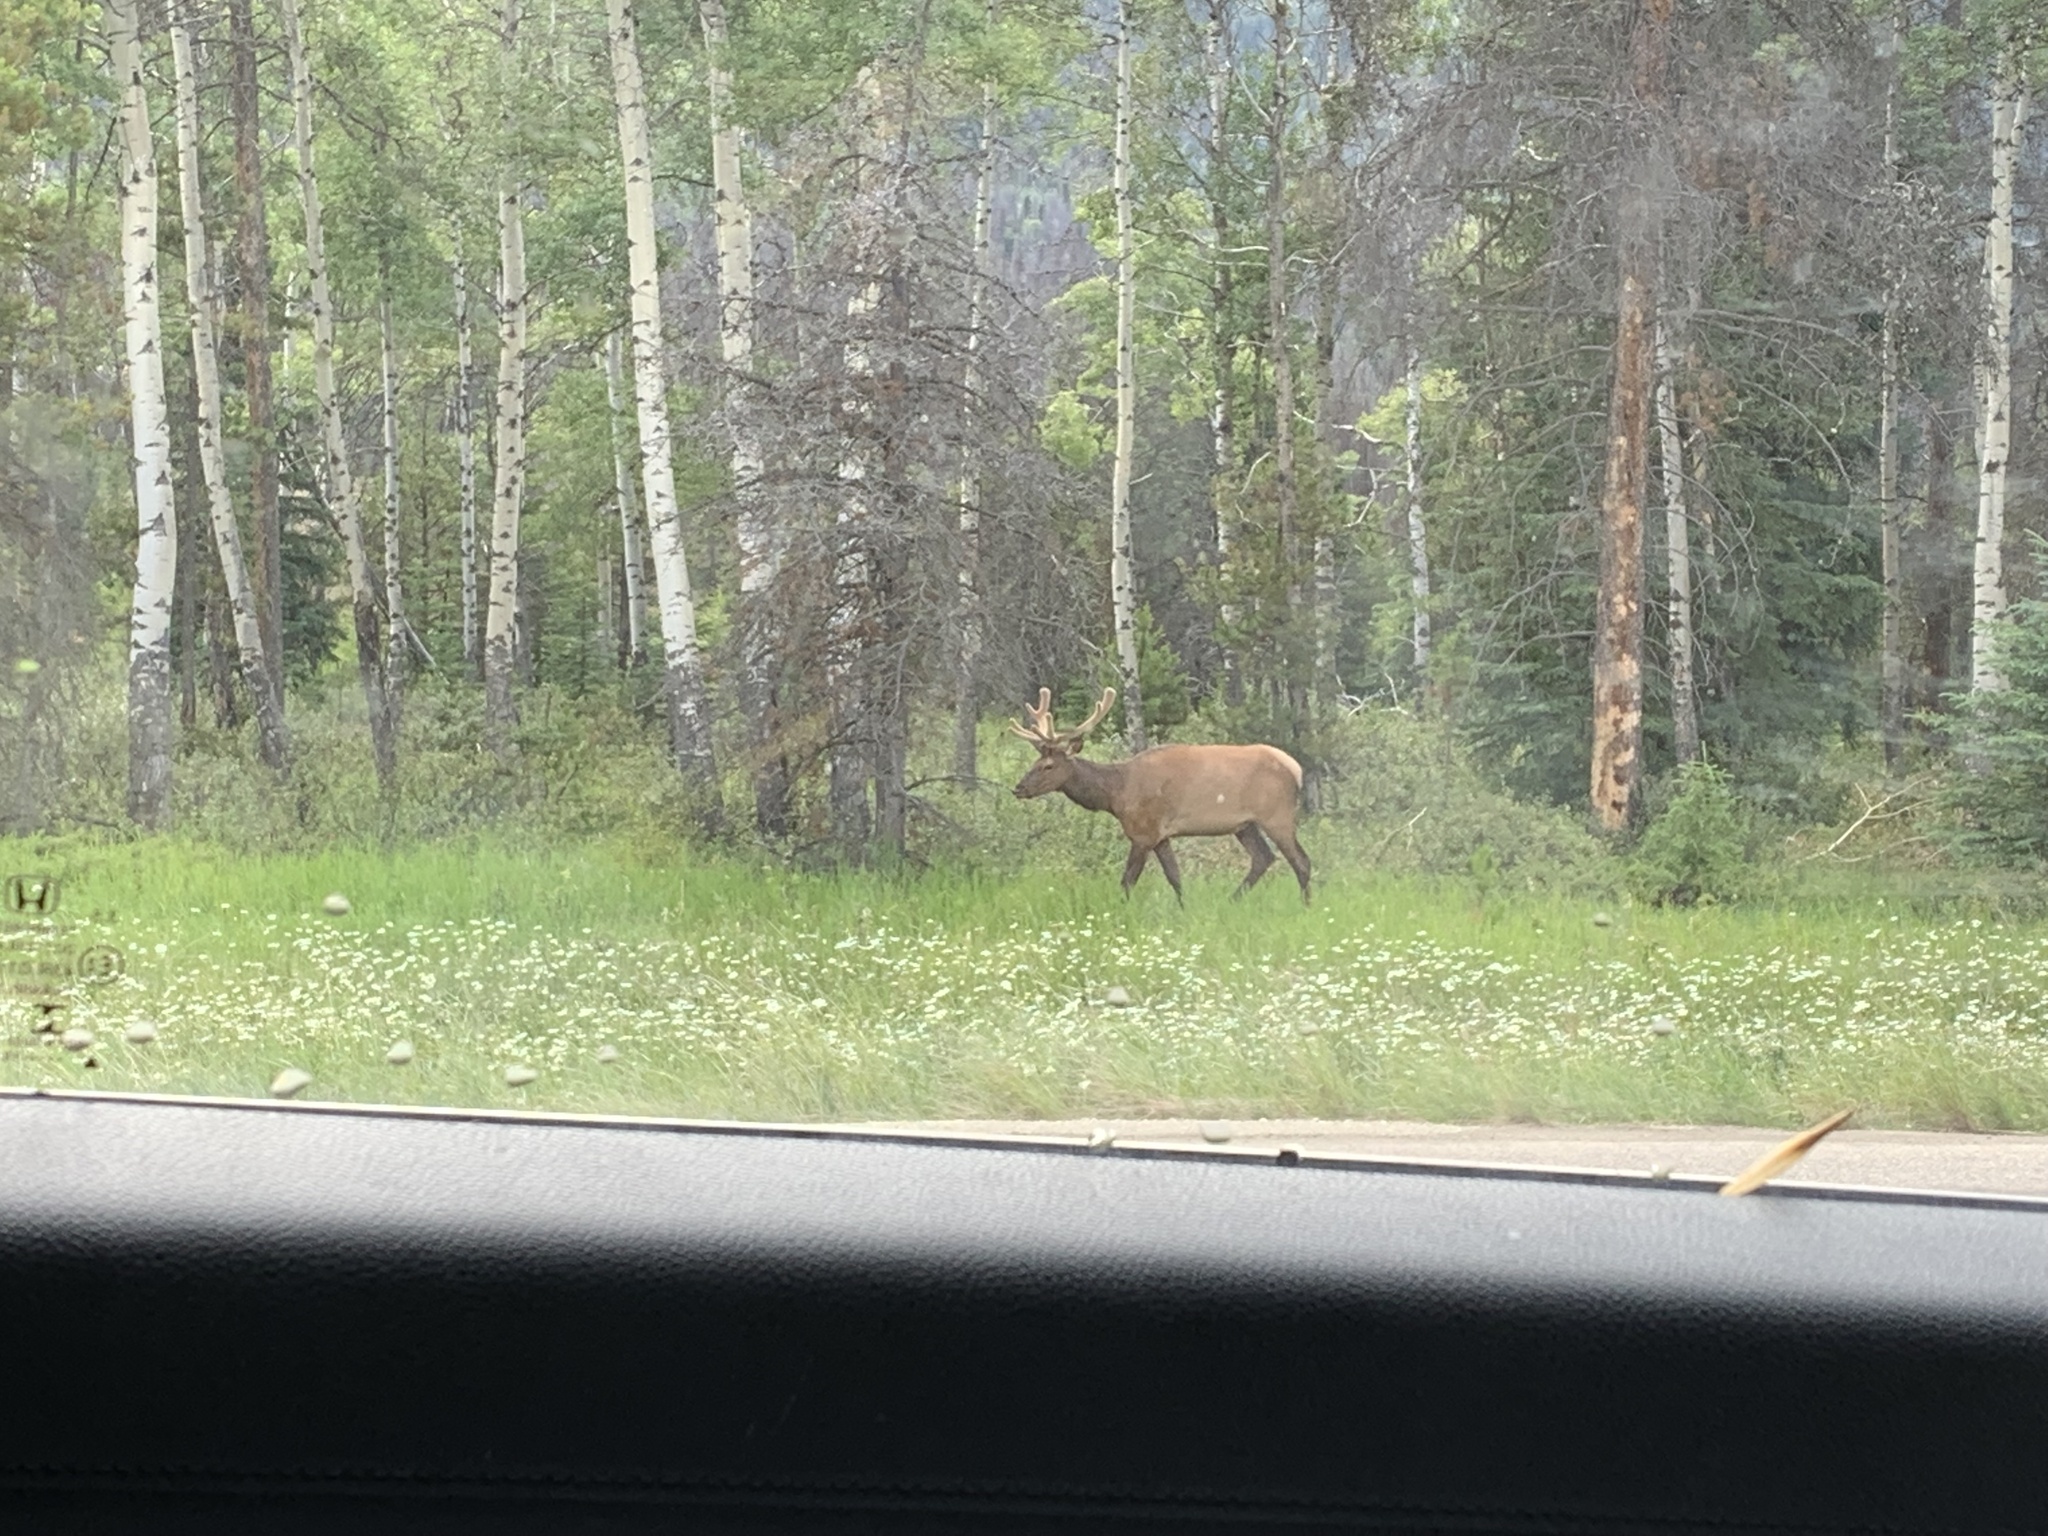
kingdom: Animalia
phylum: Chordata
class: Mammalia
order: Artiodactyla
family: Cervidae
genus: Cervus
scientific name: Cervus elaphus
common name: Red deer
